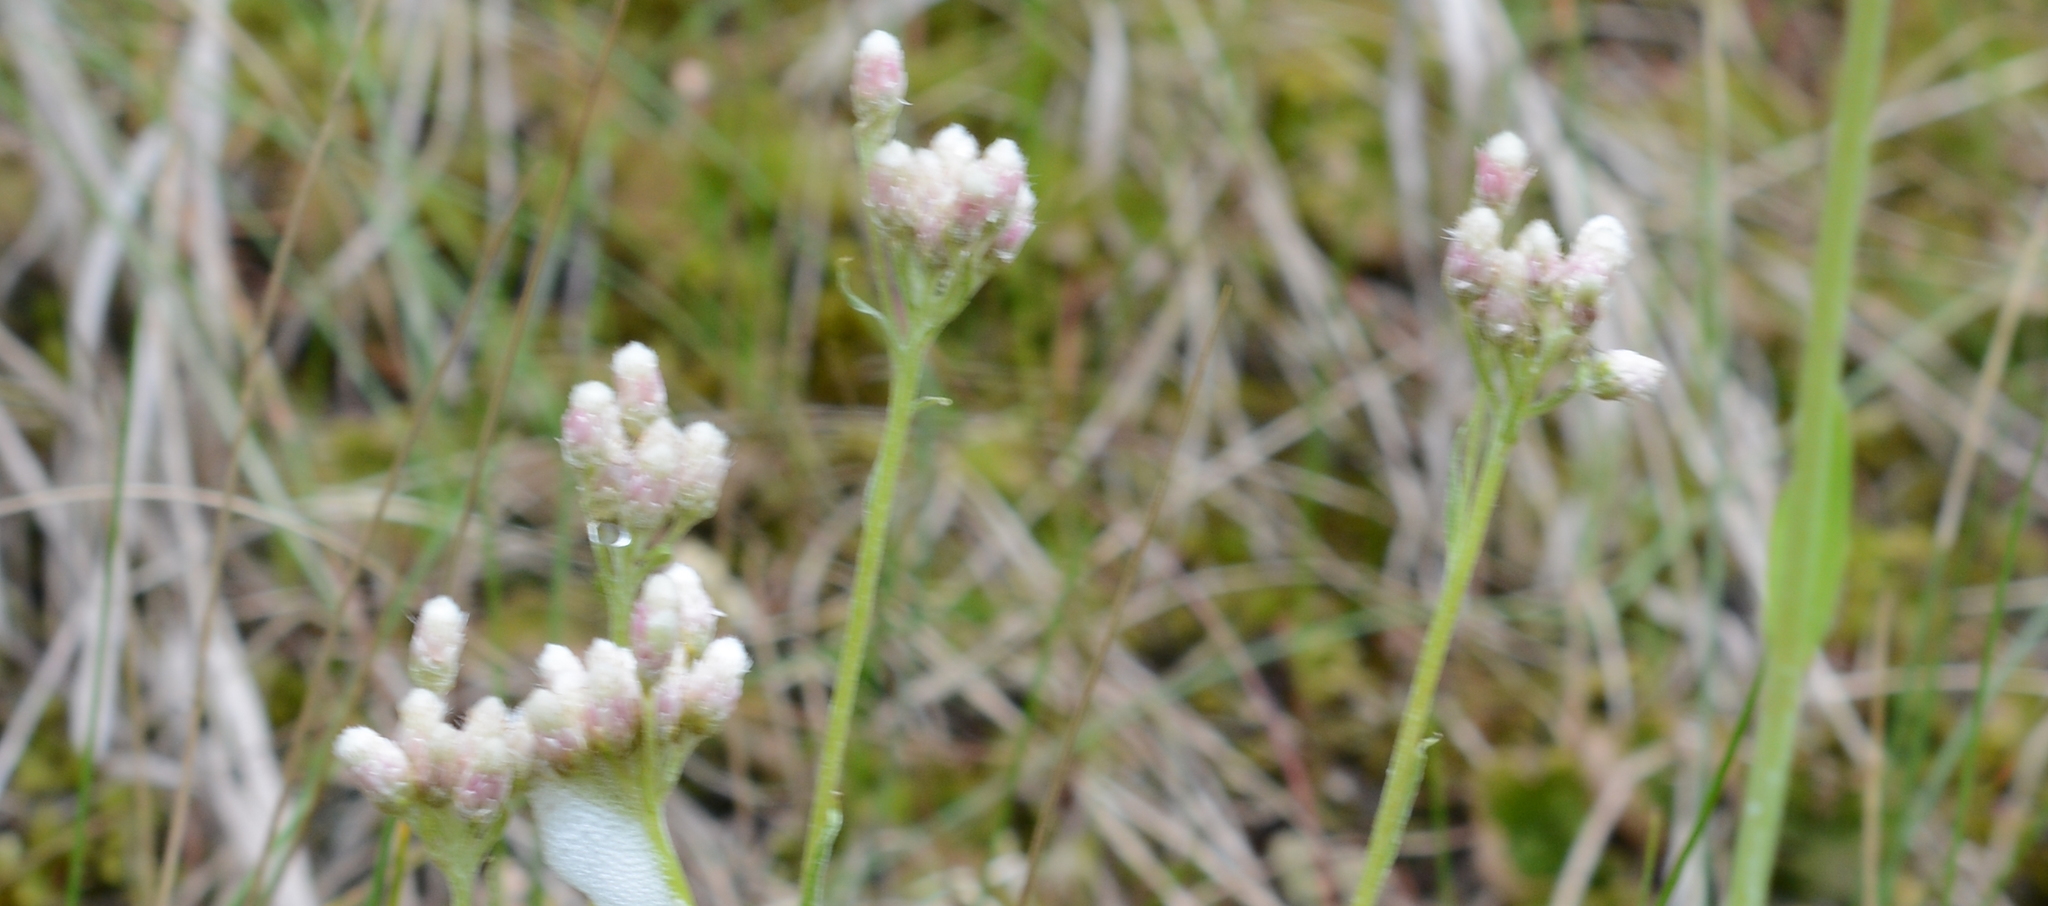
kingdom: Plantae
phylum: Tracheophyta
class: Magnoliopsida
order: Asterales
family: Asteraceae
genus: Antennaria
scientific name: Antennaria rosea
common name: Rosy pussytoes
